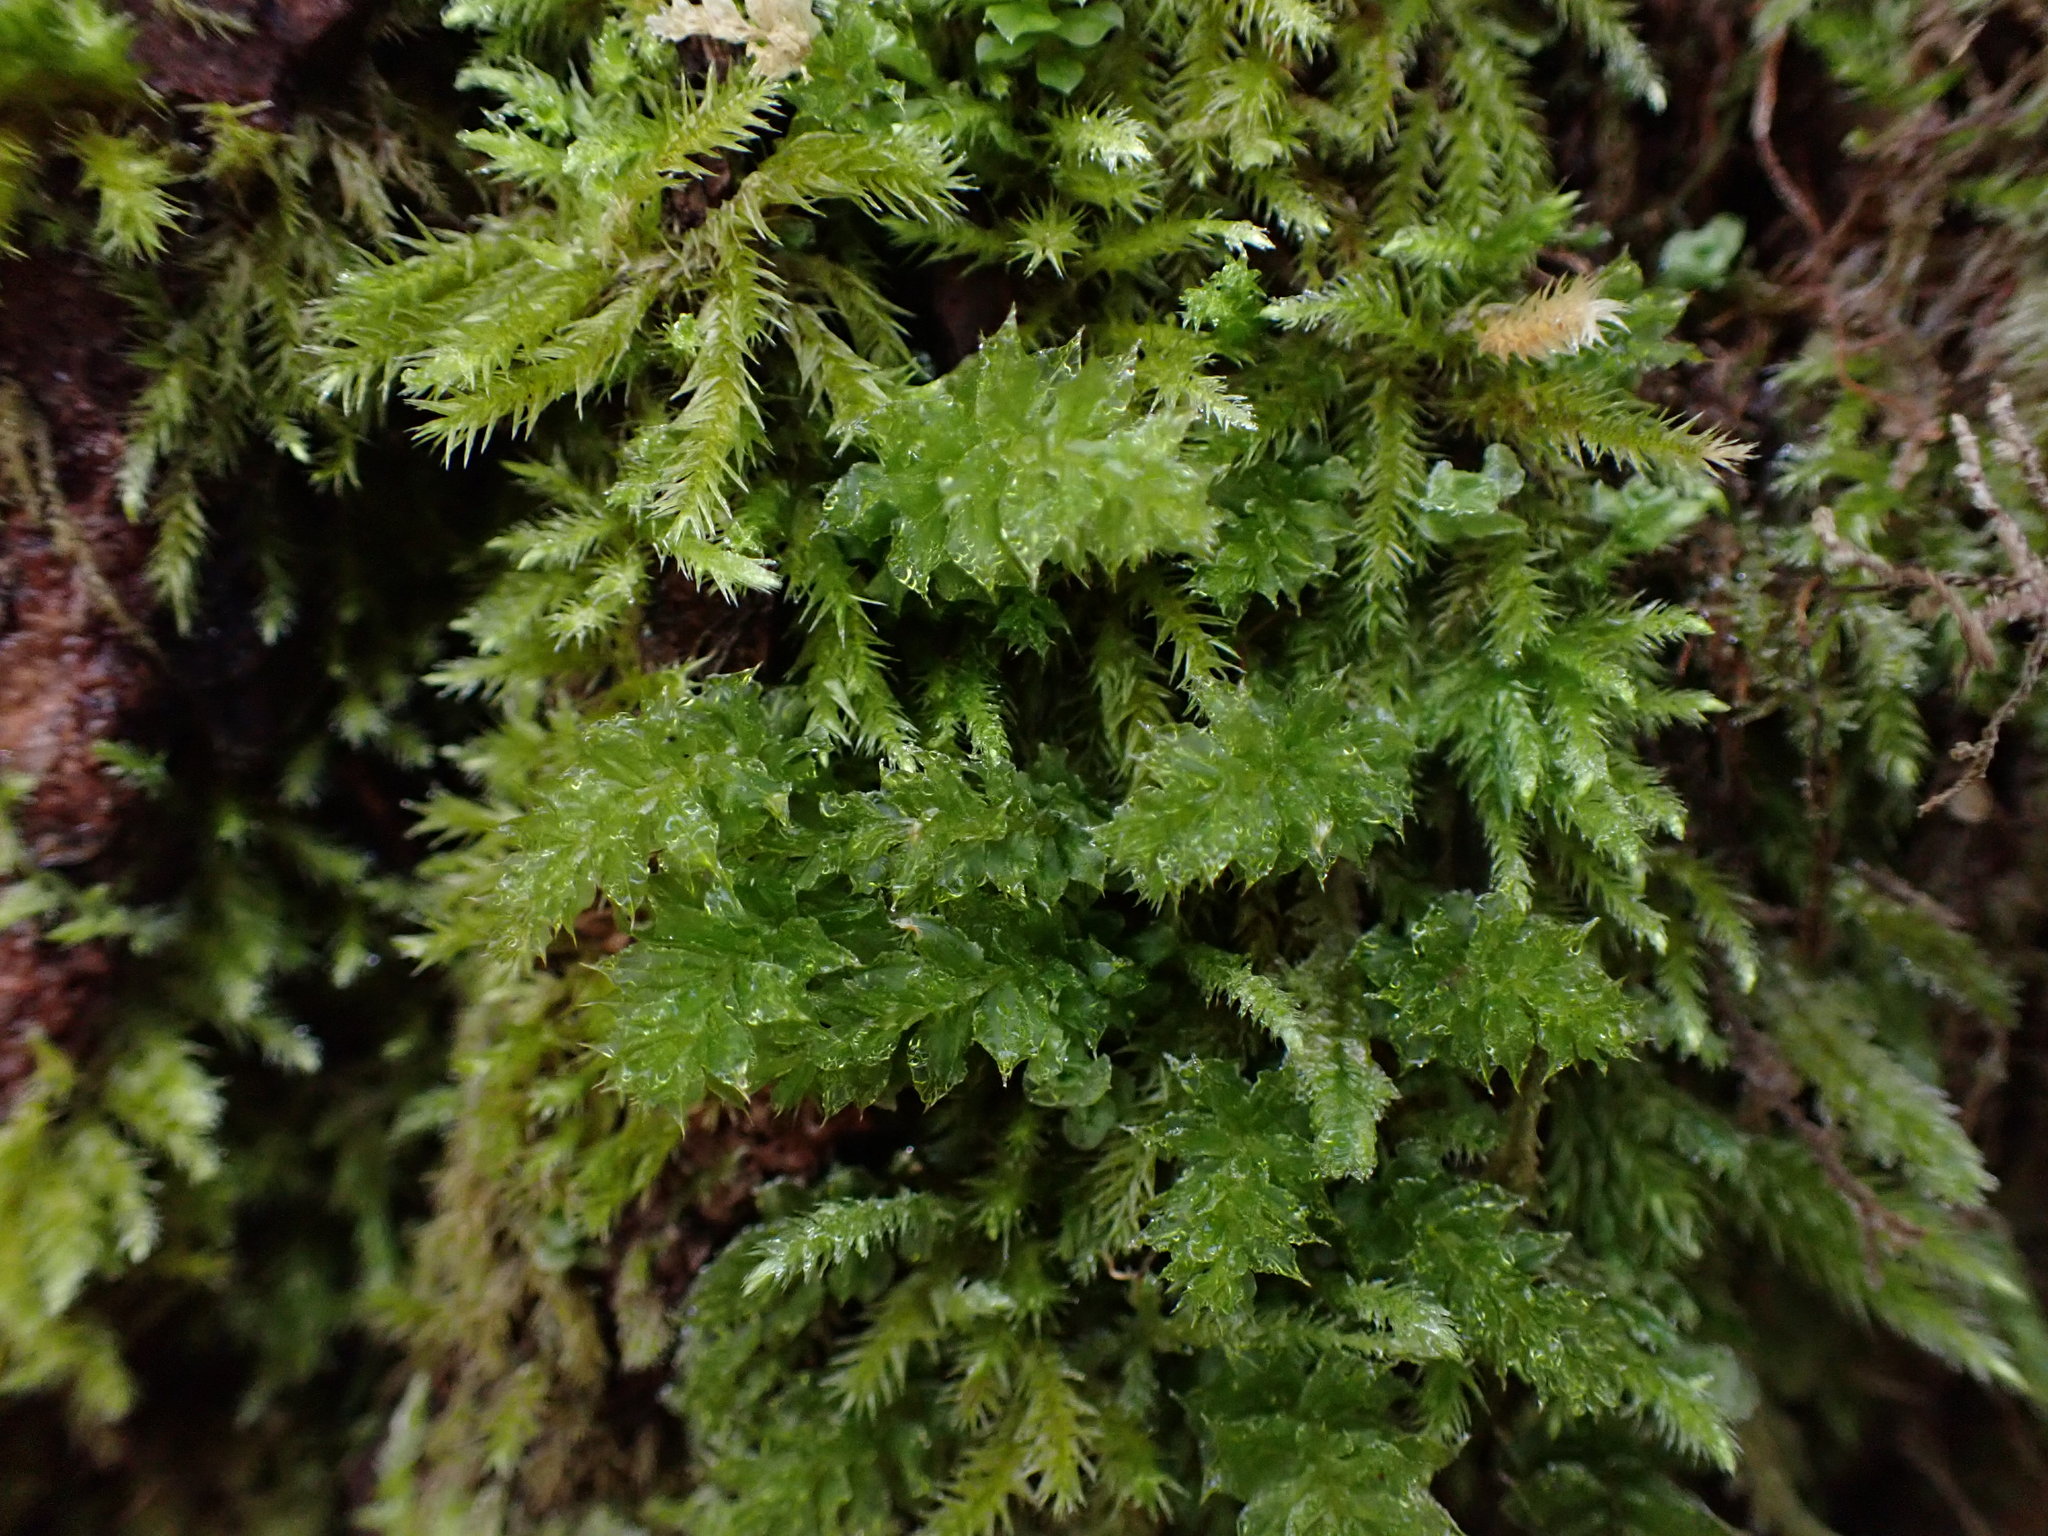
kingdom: Plantae
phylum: Bryophyta
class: Bryopsida
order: Bryales
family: Mniaceae
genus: Plagiomnium
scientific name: Plagiomnium venustum
